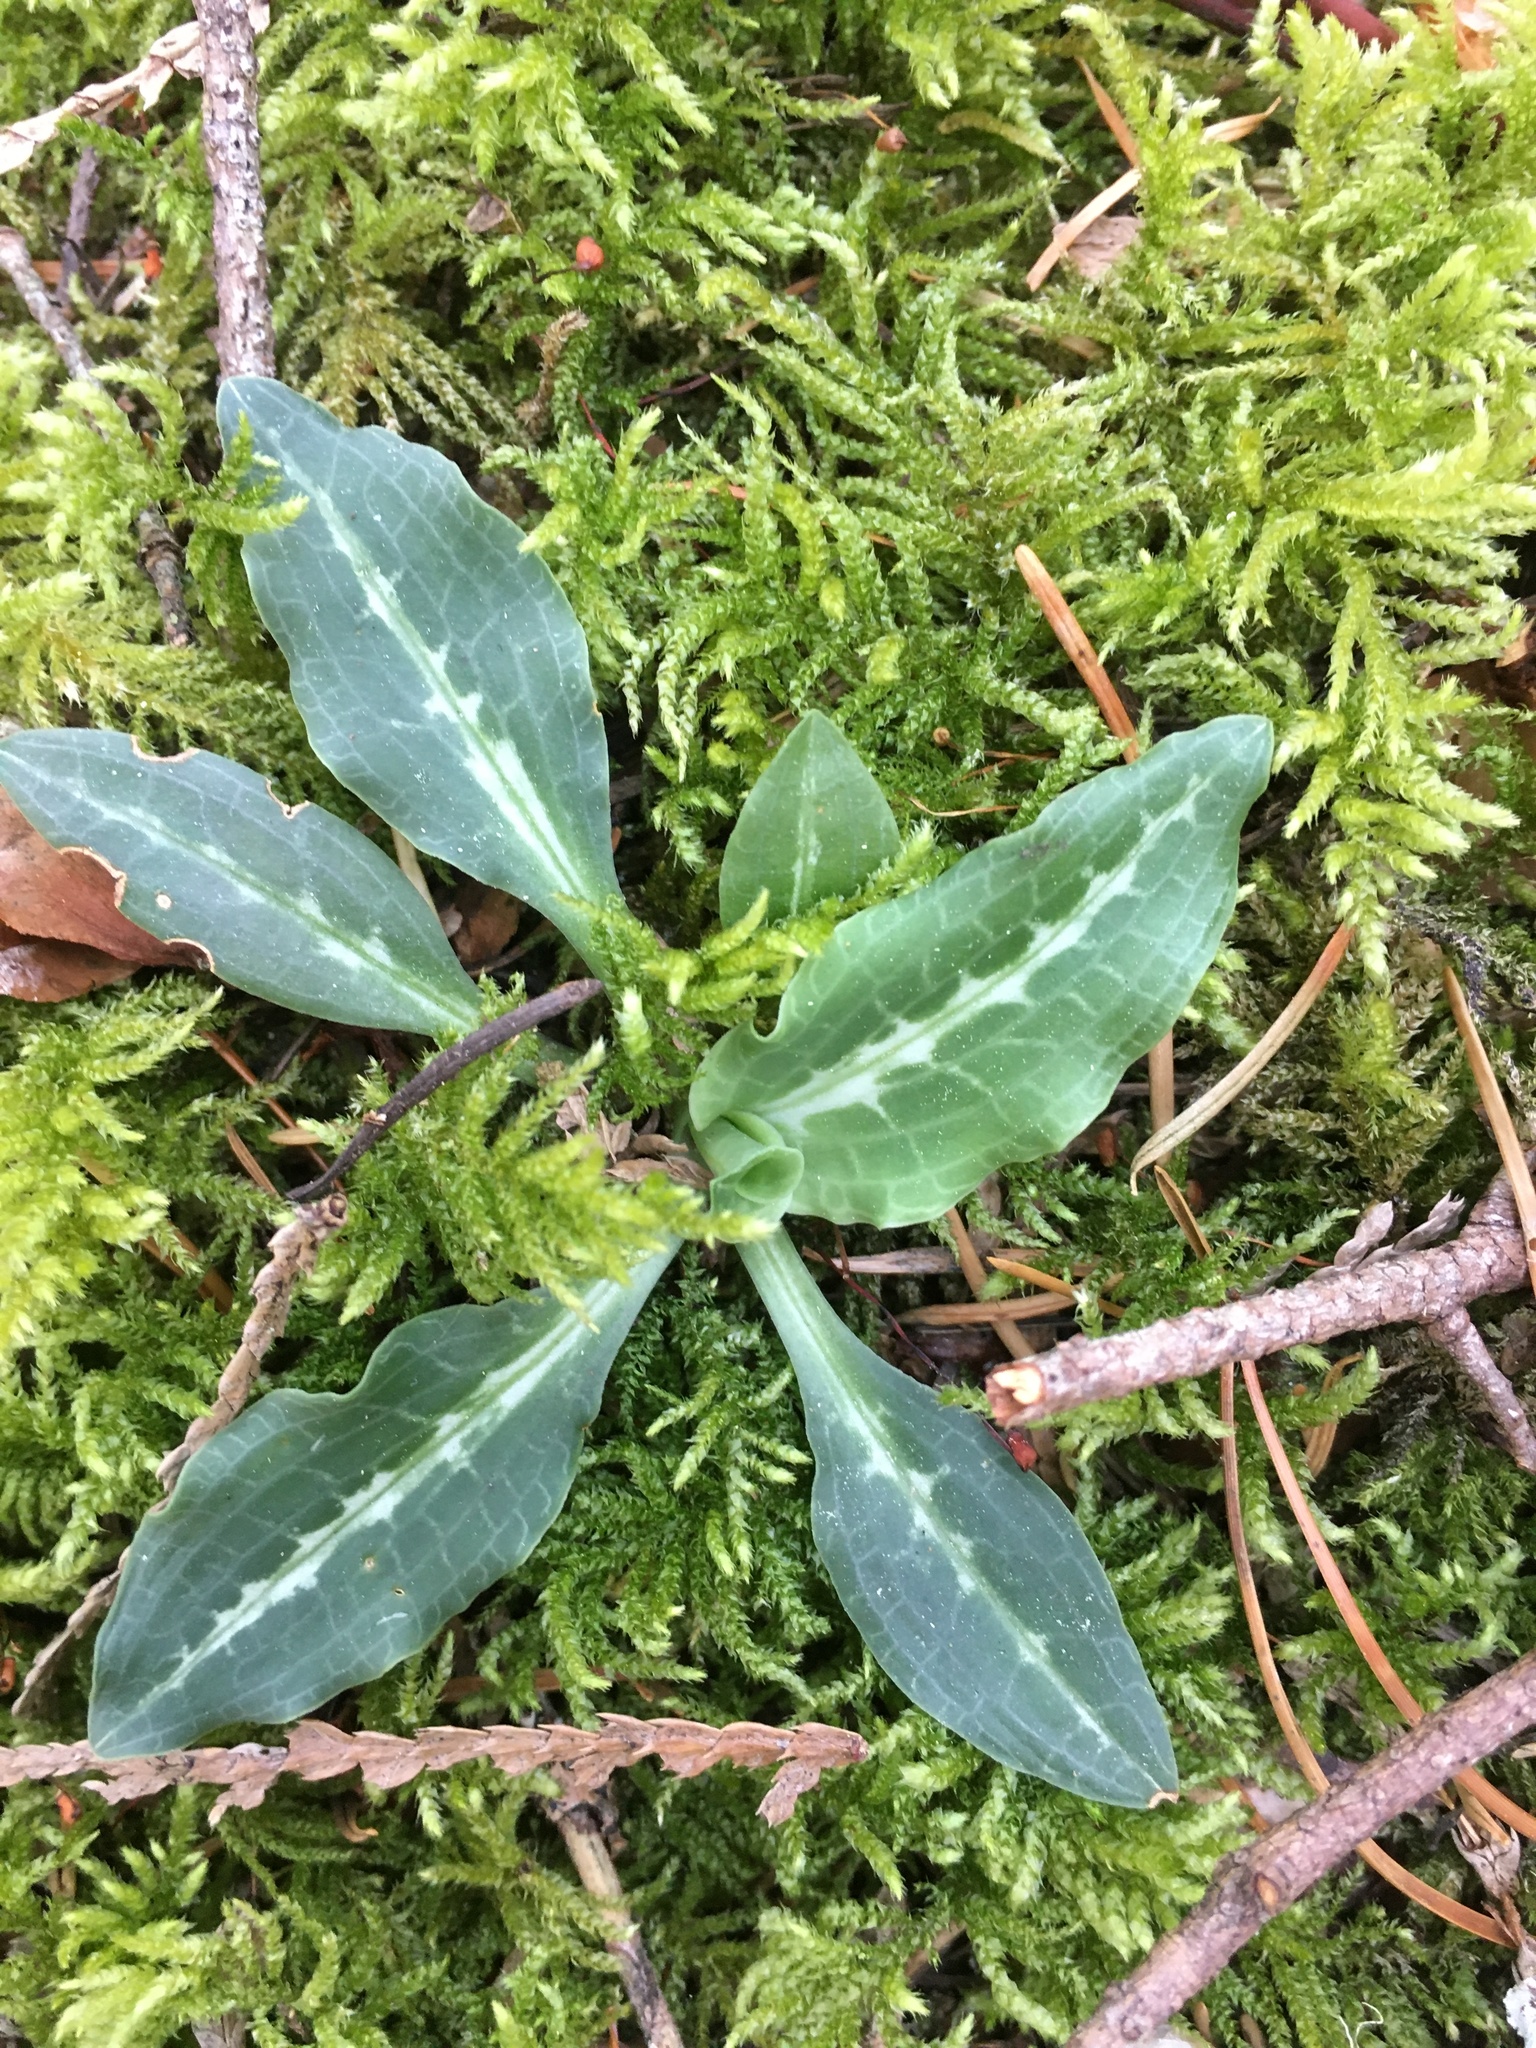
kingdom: Plantae
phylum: Tracheophyta
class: Liliopsida
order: Asparagales
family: Orchidaceae
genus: Goodyera
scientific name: Goodyera oblongifolia
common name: Giant rattlesnake-plantain
